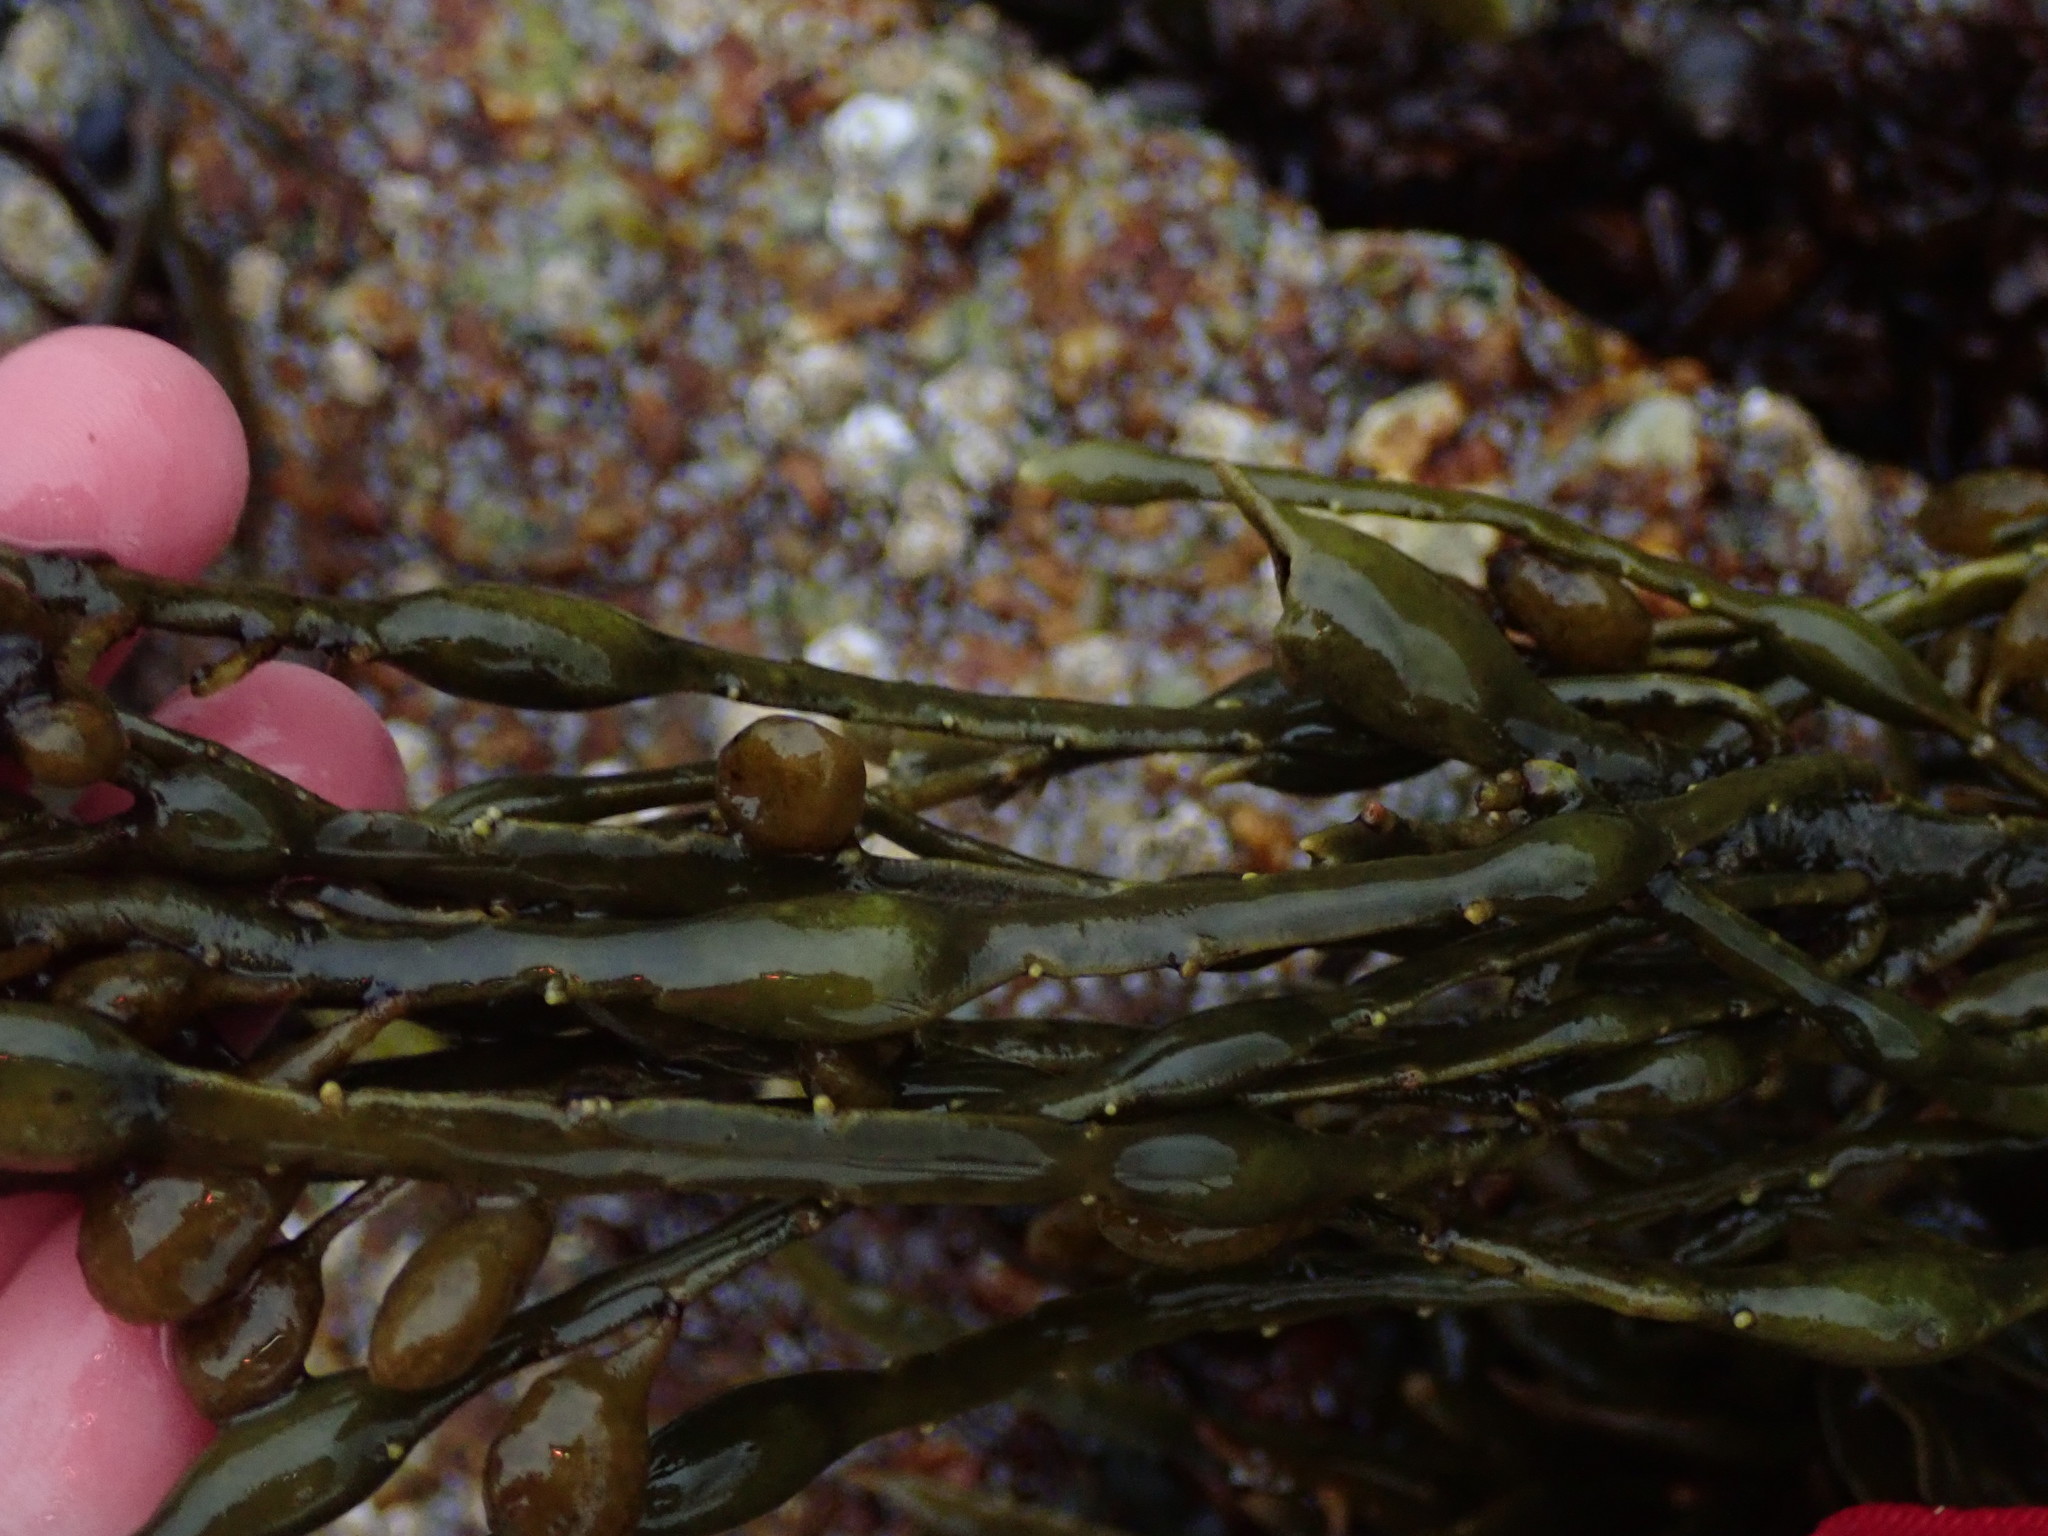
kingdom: Chromista
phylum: Ochrophyta
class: Phaeophyceae
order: Fucales
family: Fucaceae
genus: Ascophyllum
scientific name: Ascophyllum nodosum
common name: Knotted wrack
